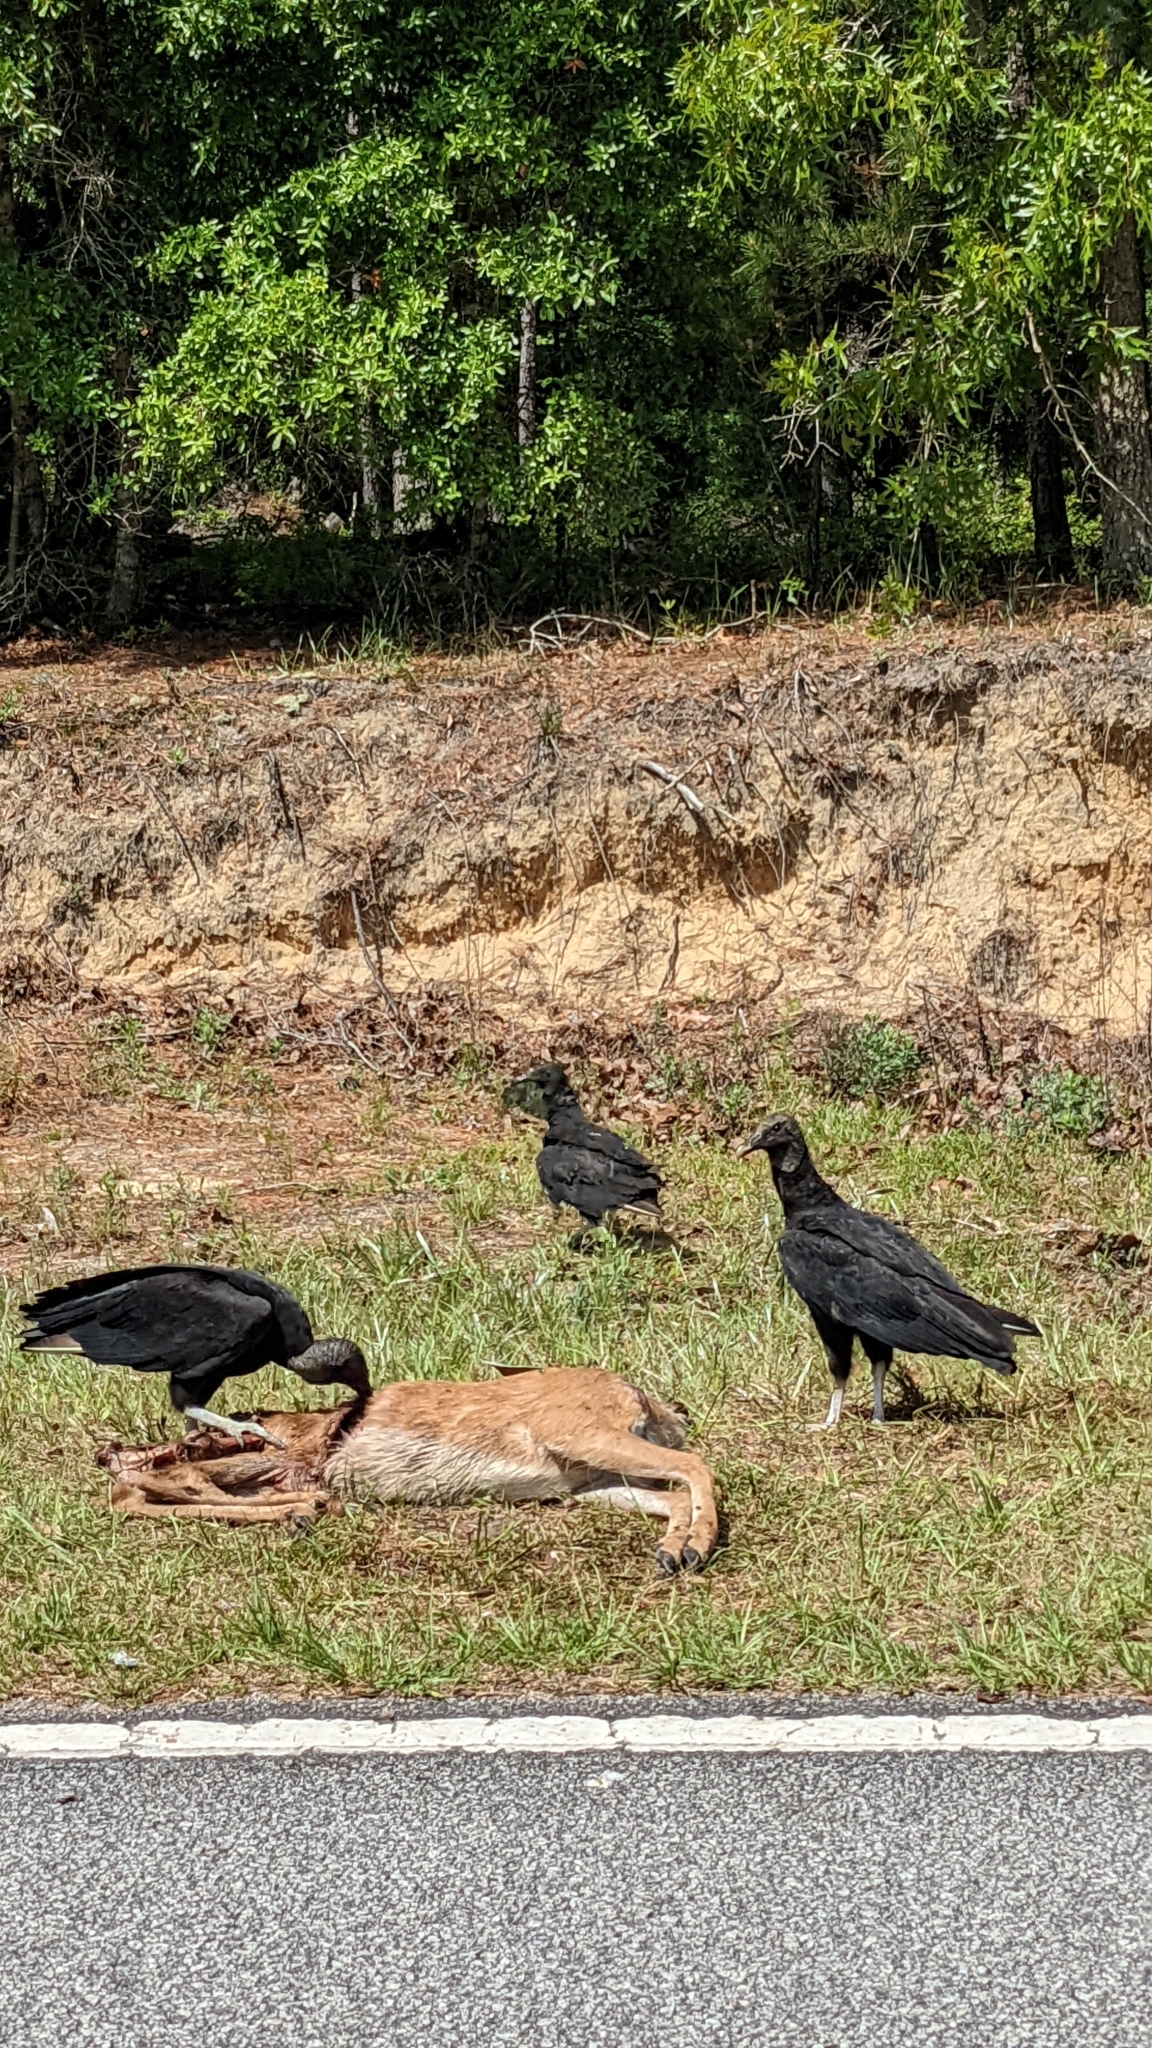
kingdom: Animalia
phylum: Chordata
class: Aves
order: Accipitriformes
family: Cathartidae
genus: Coragyps
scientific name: Coragyps atratus
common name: Black vulture
